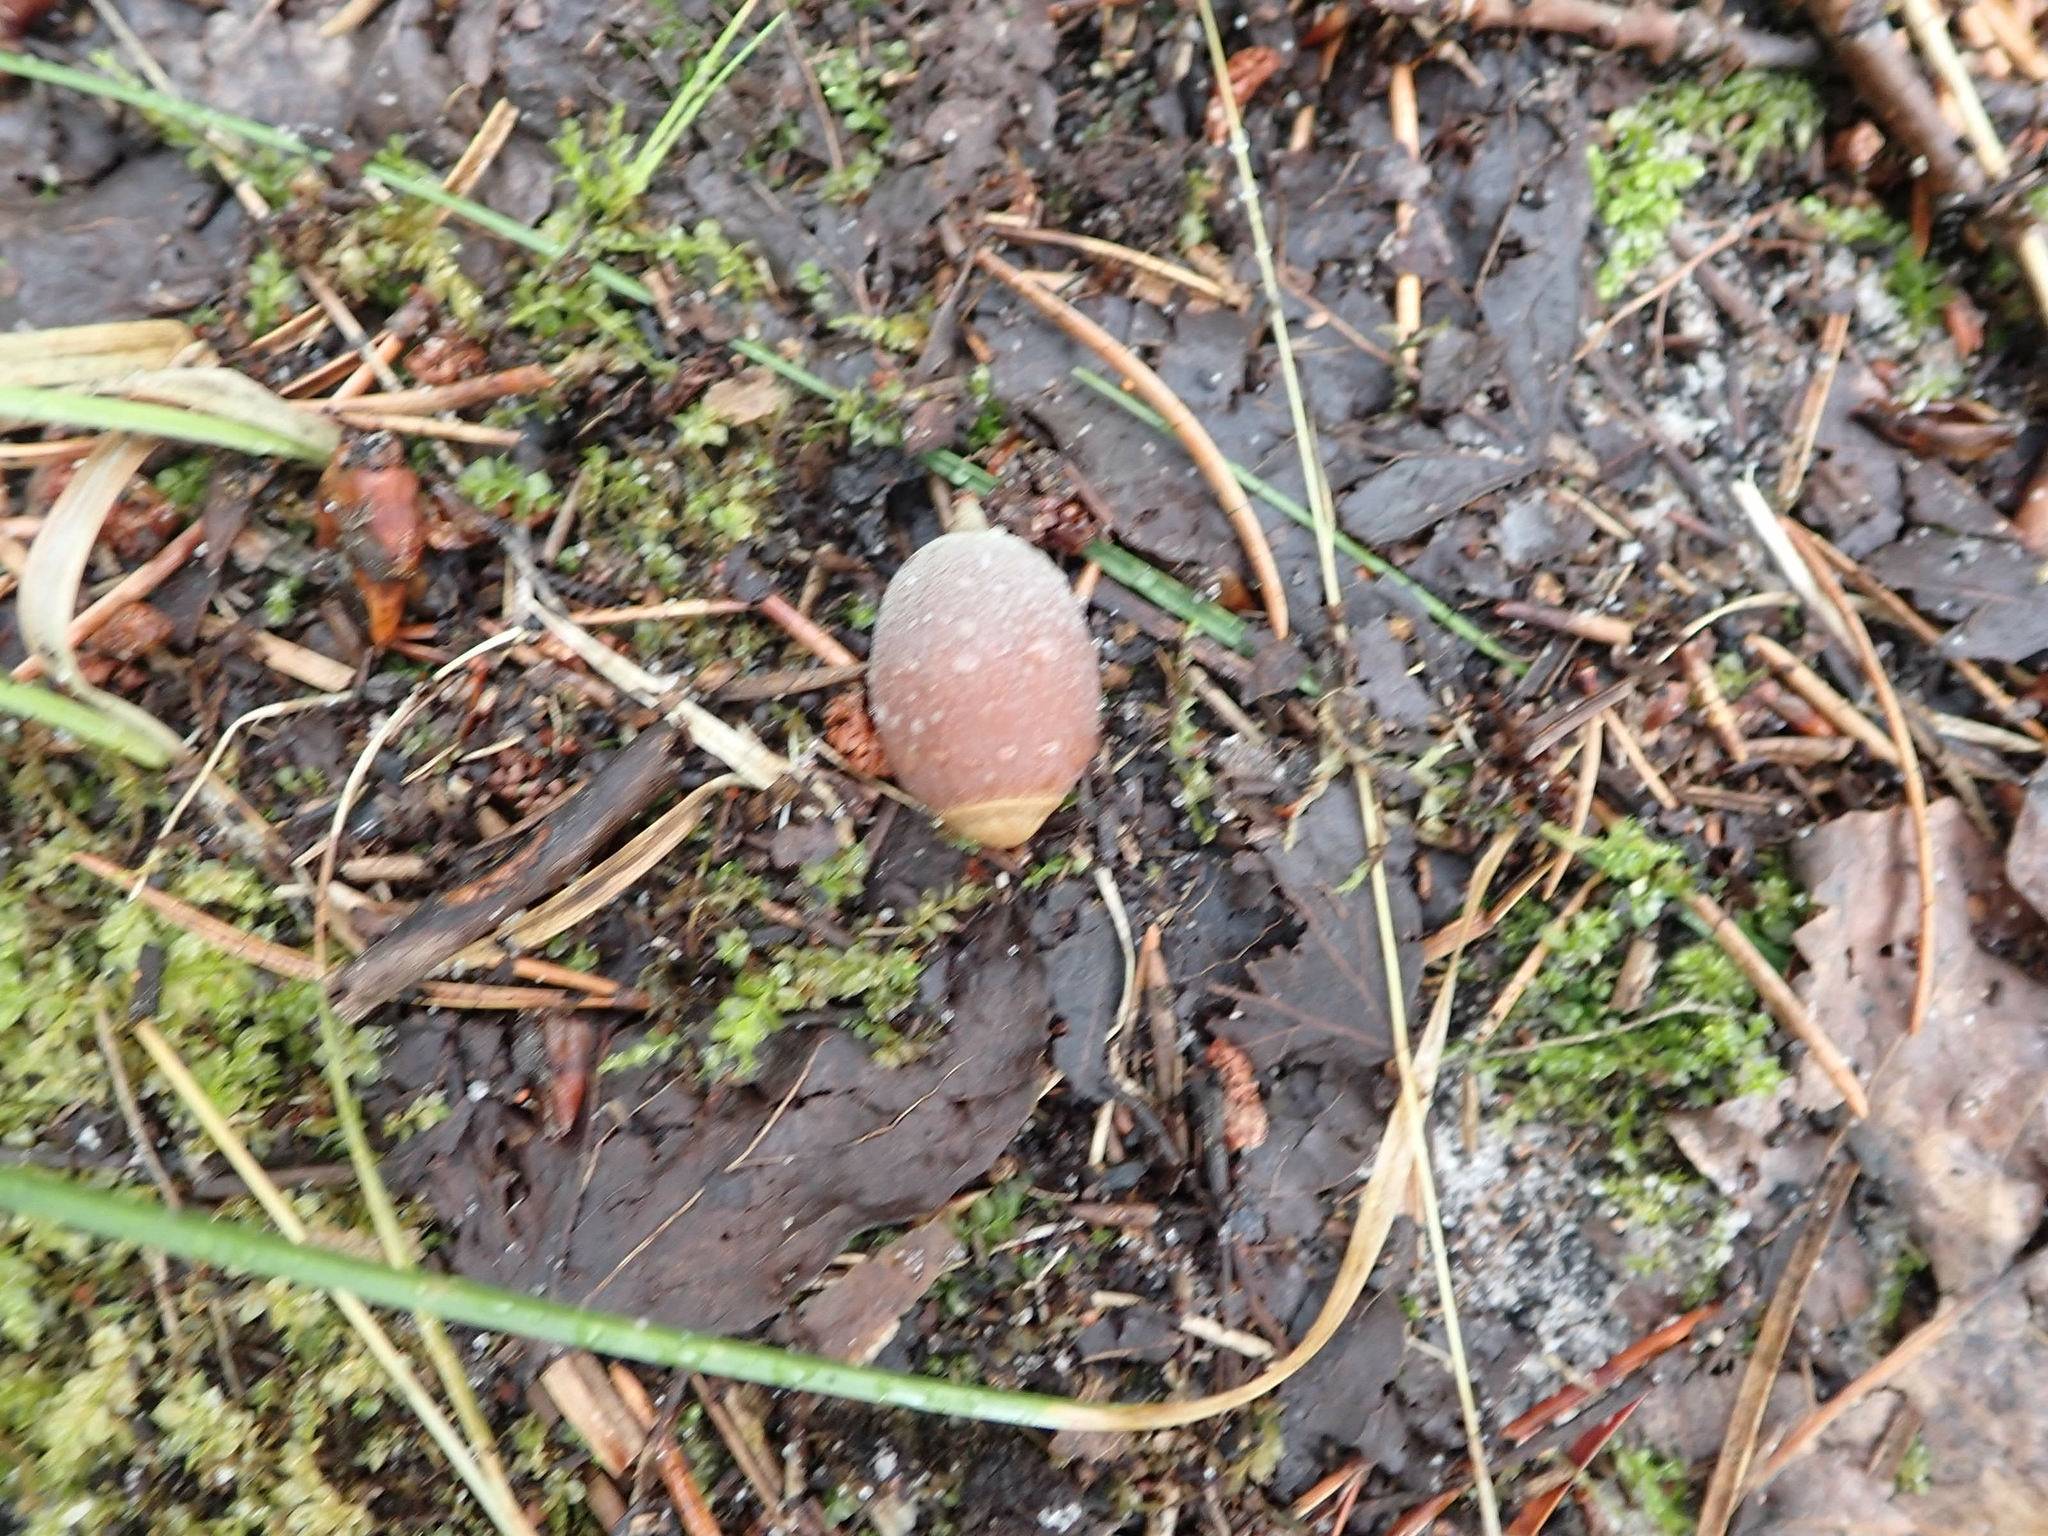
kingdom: Plantae
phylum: Tracheophyta
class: Magnoliopsida
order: Fagales
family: Fagaceae
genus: Quercus
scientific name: Quercus macrocarpa
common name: Bur oak
